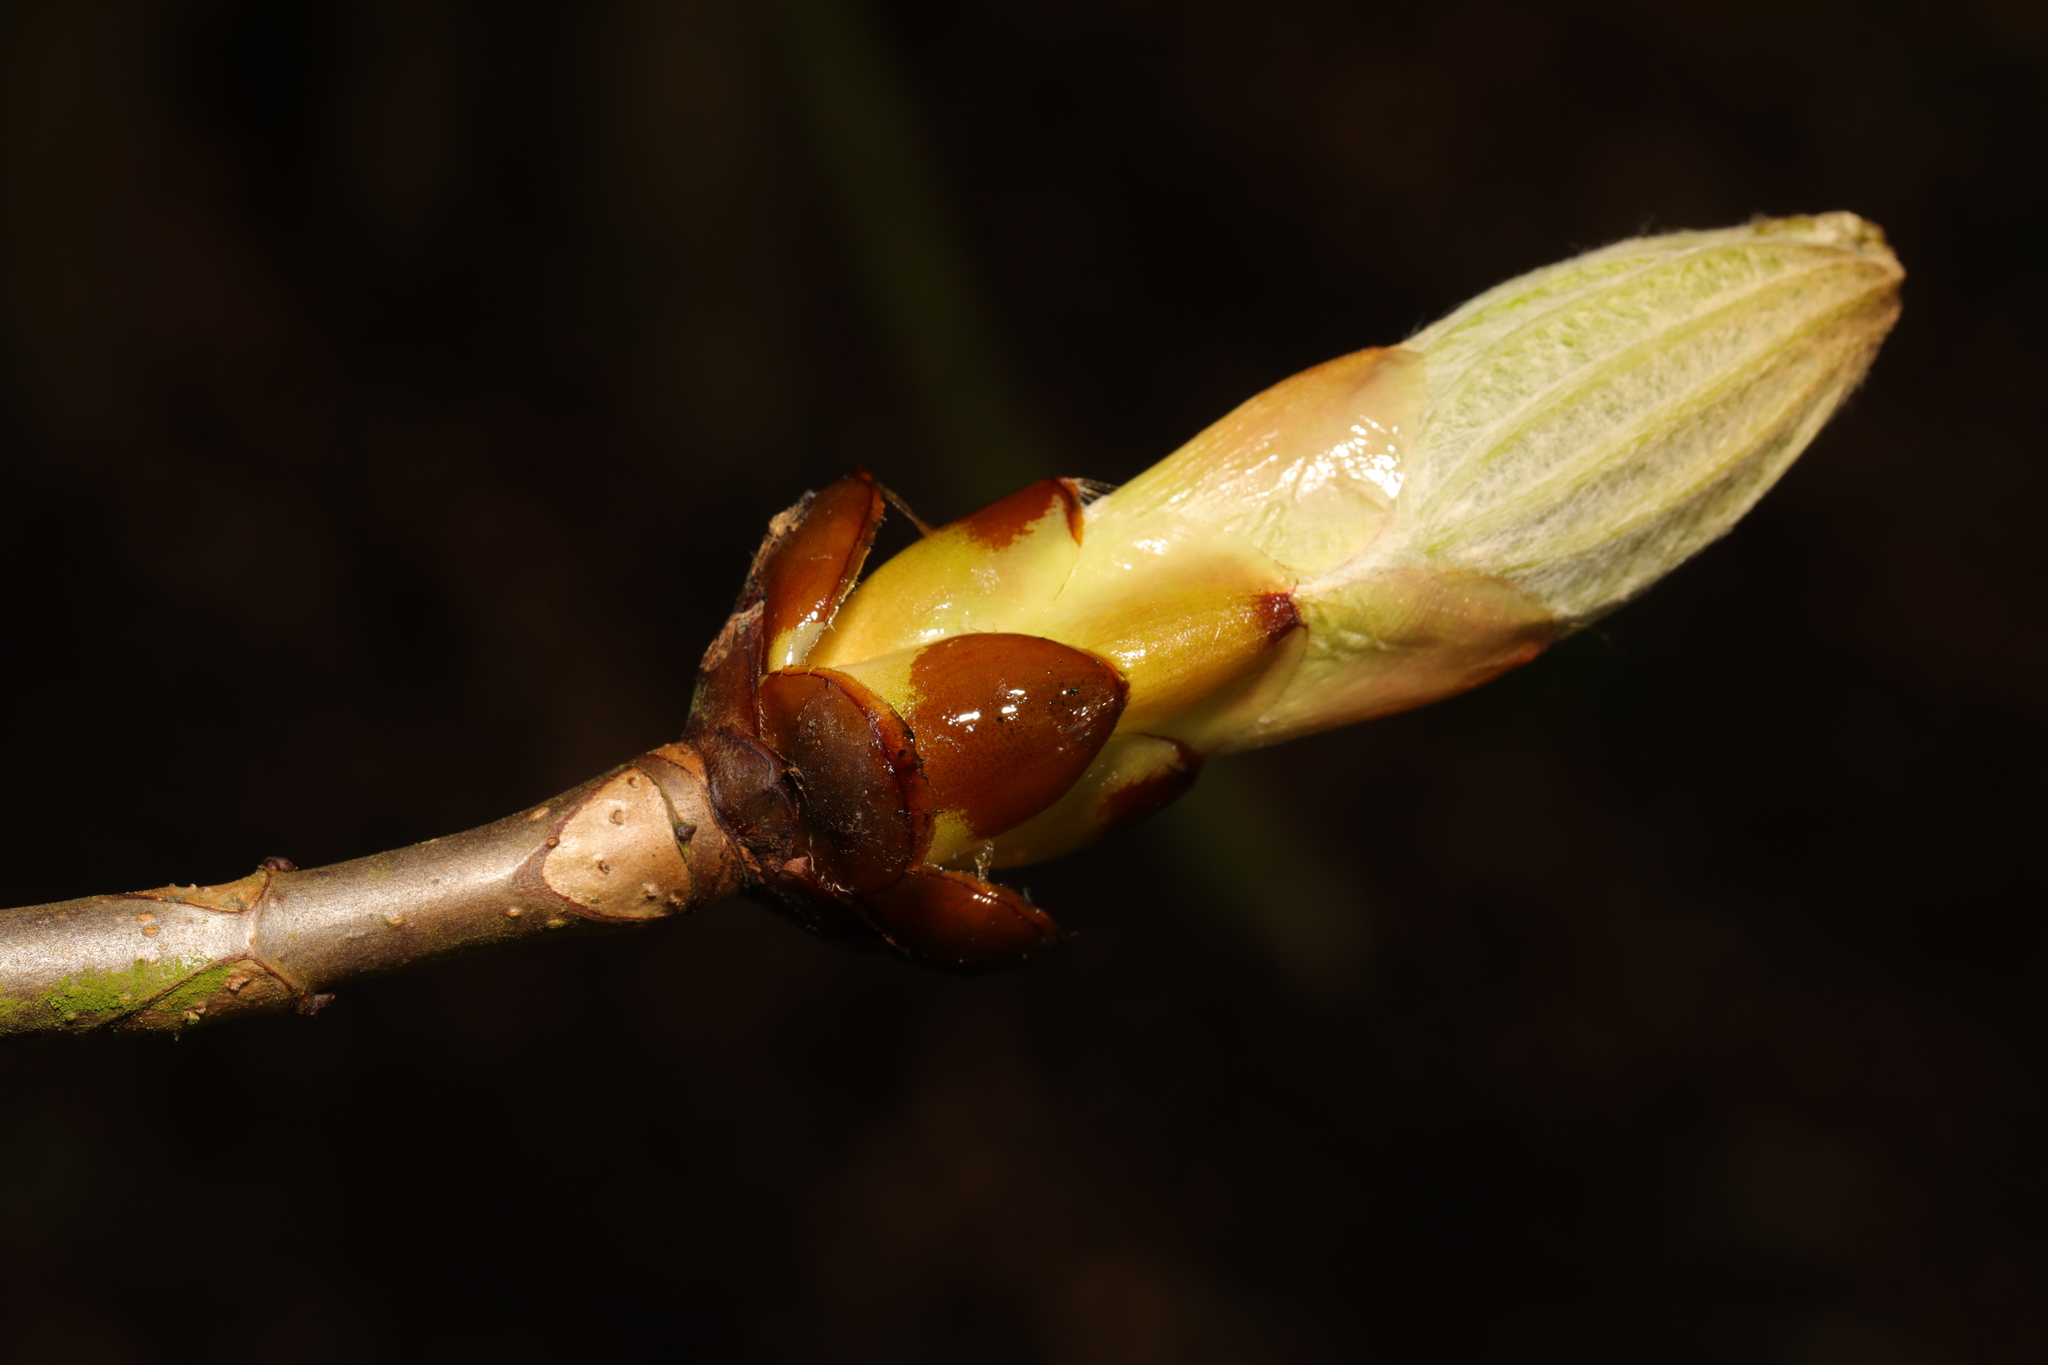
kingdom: Plantae
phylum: Tracheophyta
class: Magnoliopsida
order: Sapindales
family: Sapindaceae
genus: Aesculus
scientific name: Aesculus hippocastanum
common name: Horse-chestnut
